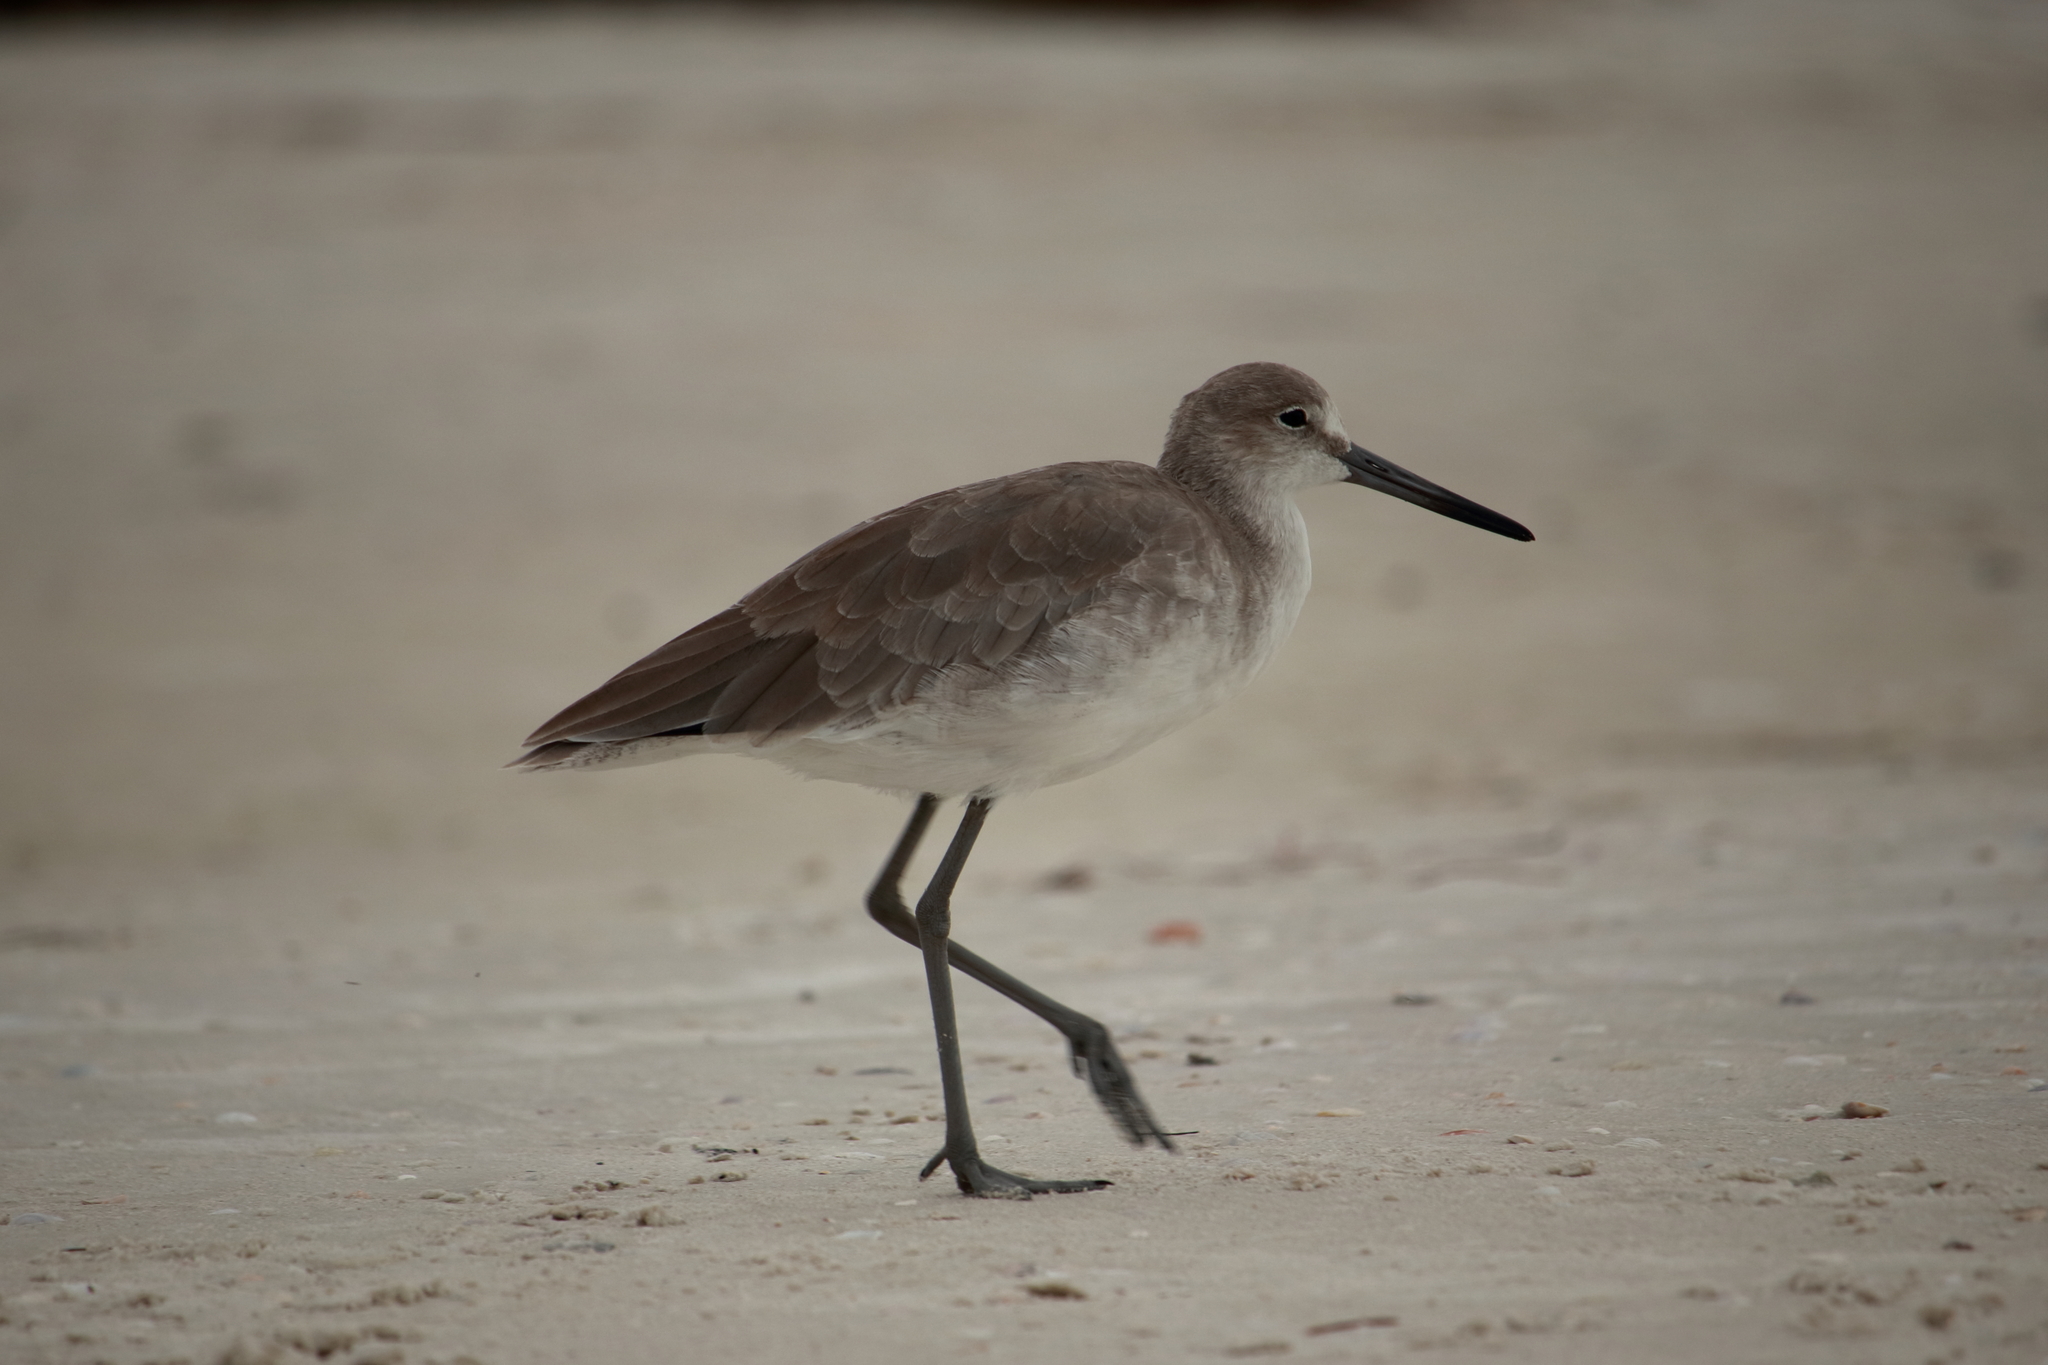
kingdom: Animalia
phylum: Chordata
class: Aves
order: Charadriiformes
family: Scolopacidae
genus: Tringa
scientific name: Tringa semipalmata
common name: Willet
